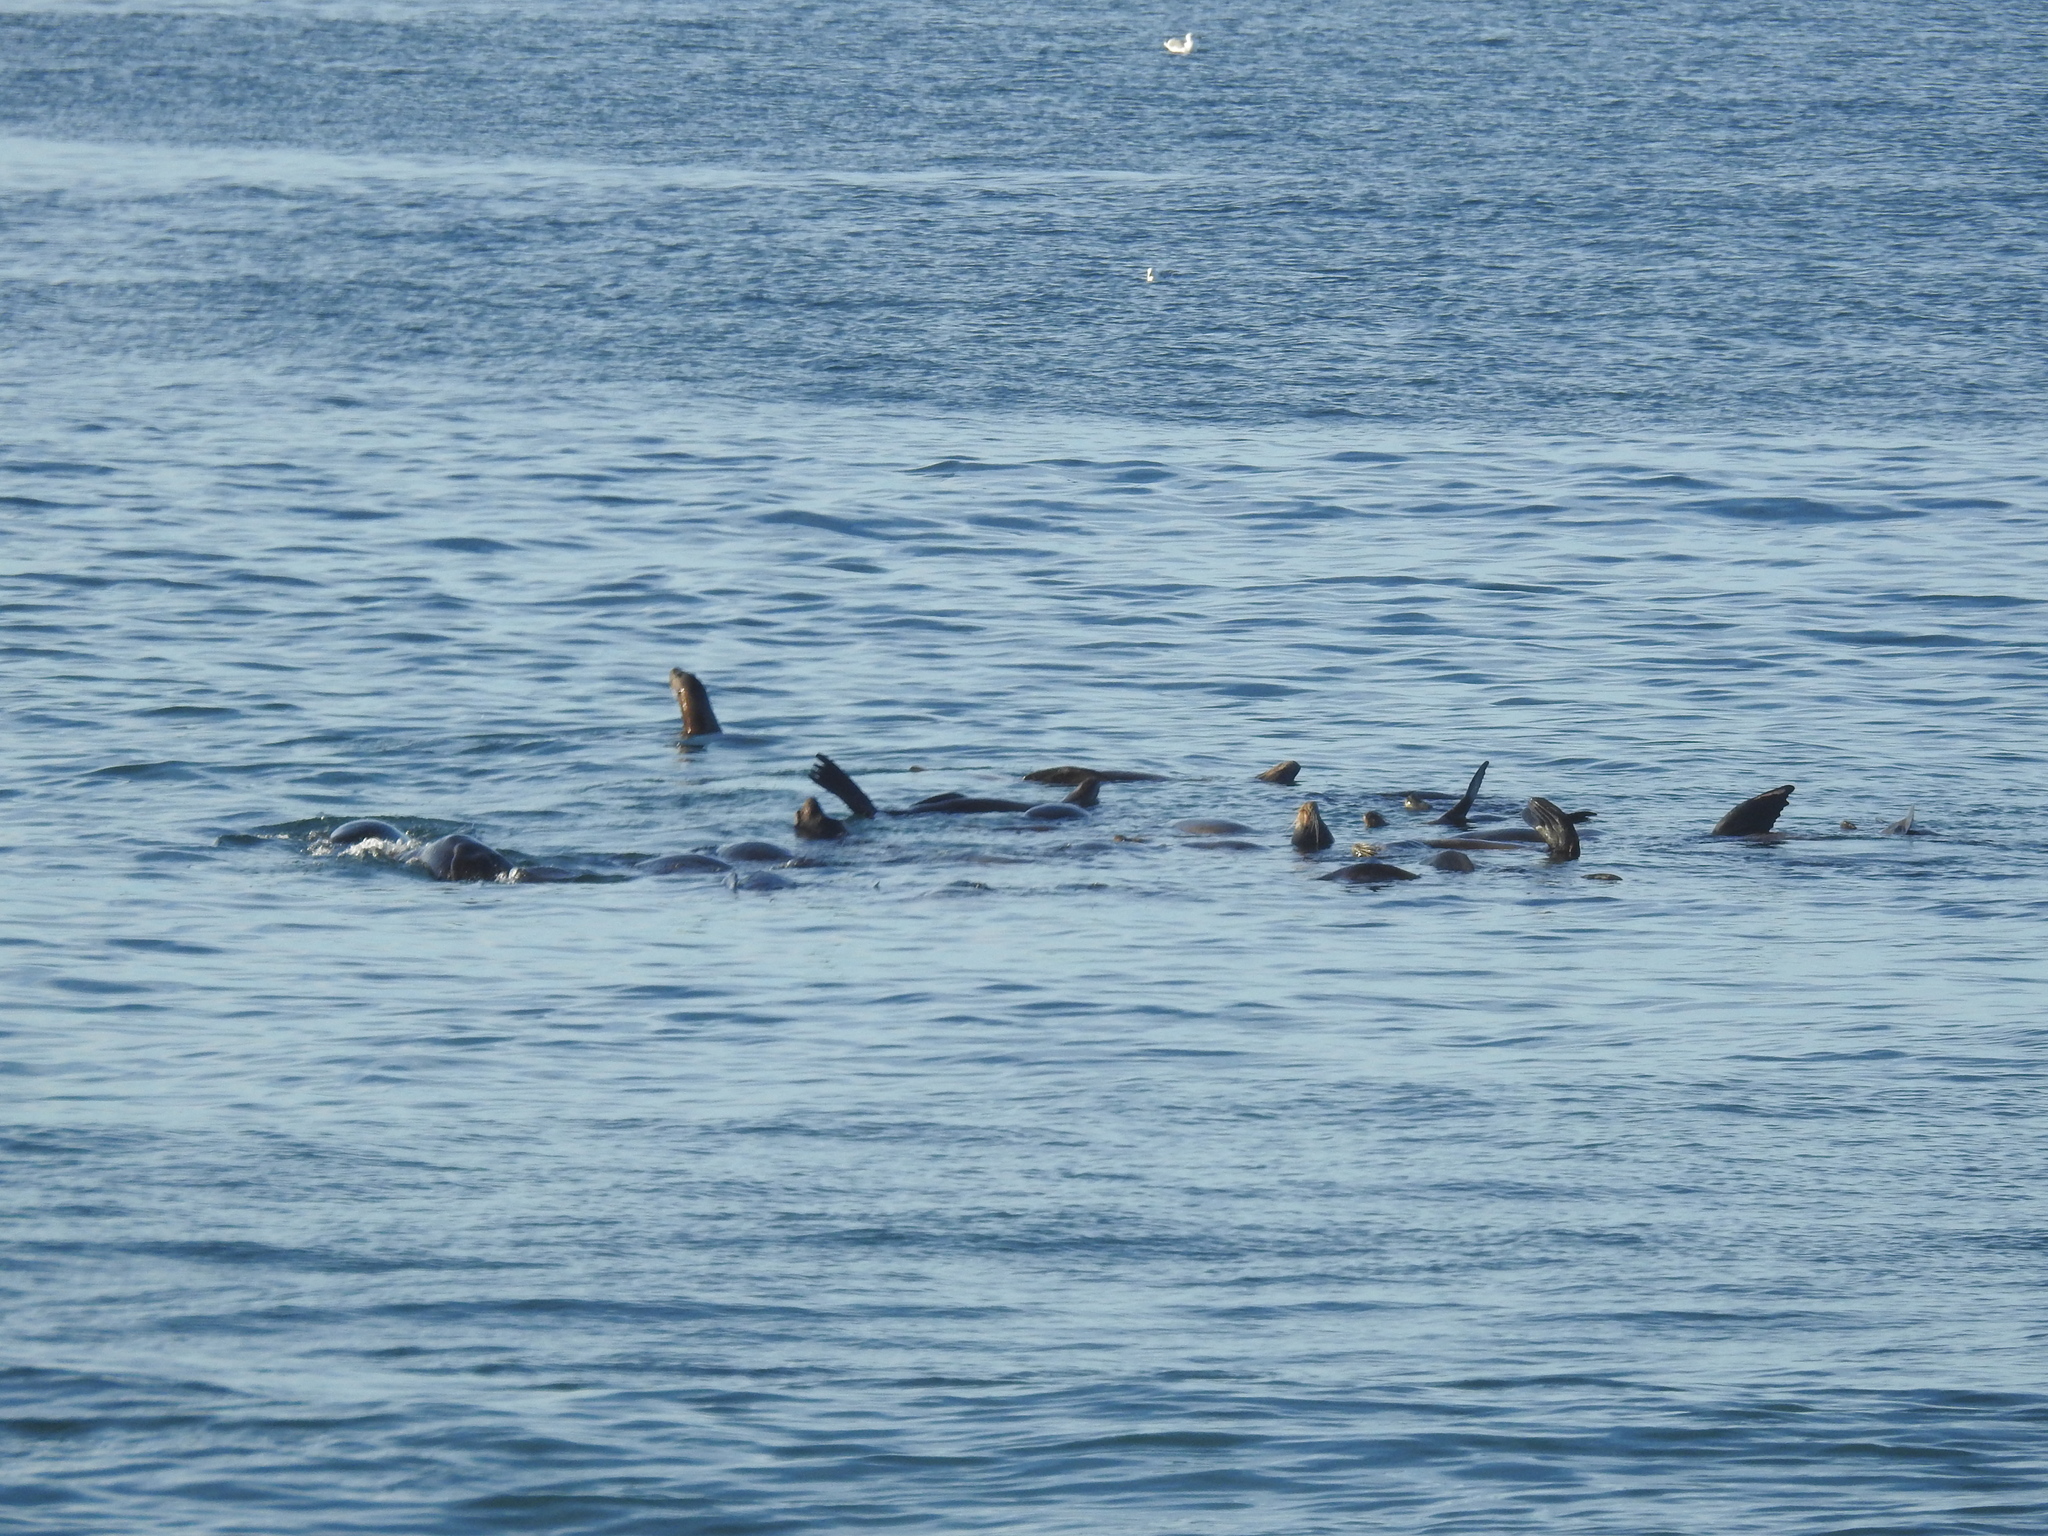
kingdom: Animalia
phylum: Chordata
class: Mammalia
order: Carnivora
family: Otariidae
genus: Zalophus
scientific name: Zalophus californianus
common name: California sea lion
